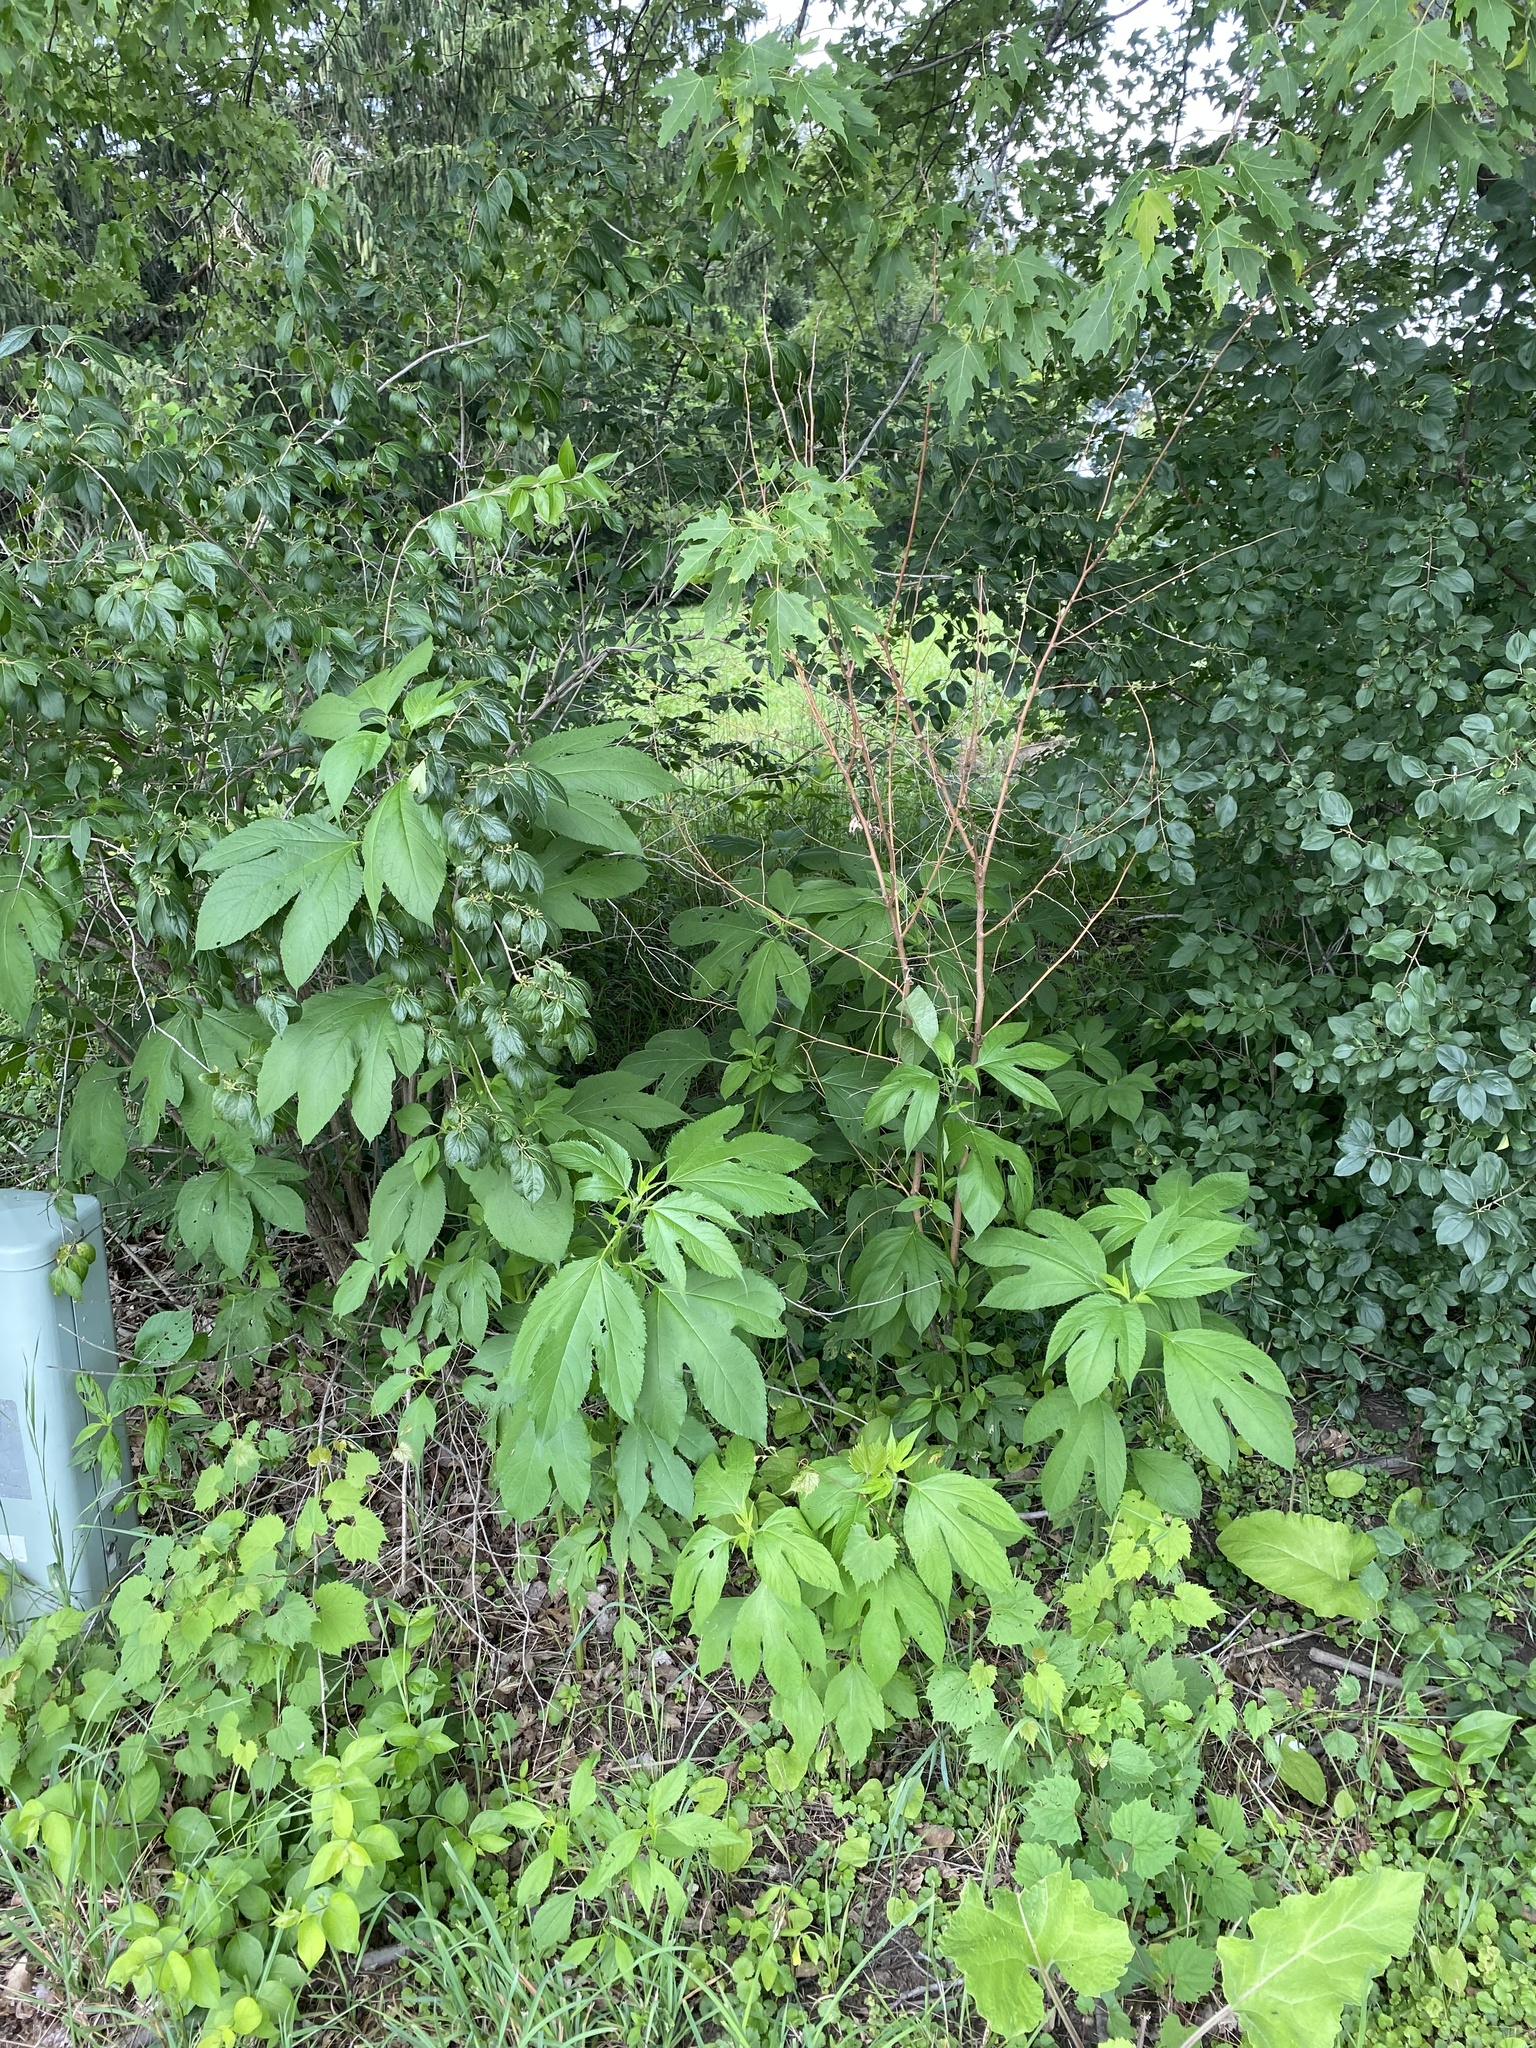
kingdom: Plantae
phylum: Tracheophyta
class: Magnoliopsida
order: Asterales
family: Asteraceae
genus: Ambrosia
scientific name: Ambrosia trifida
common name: Giant ragweed
